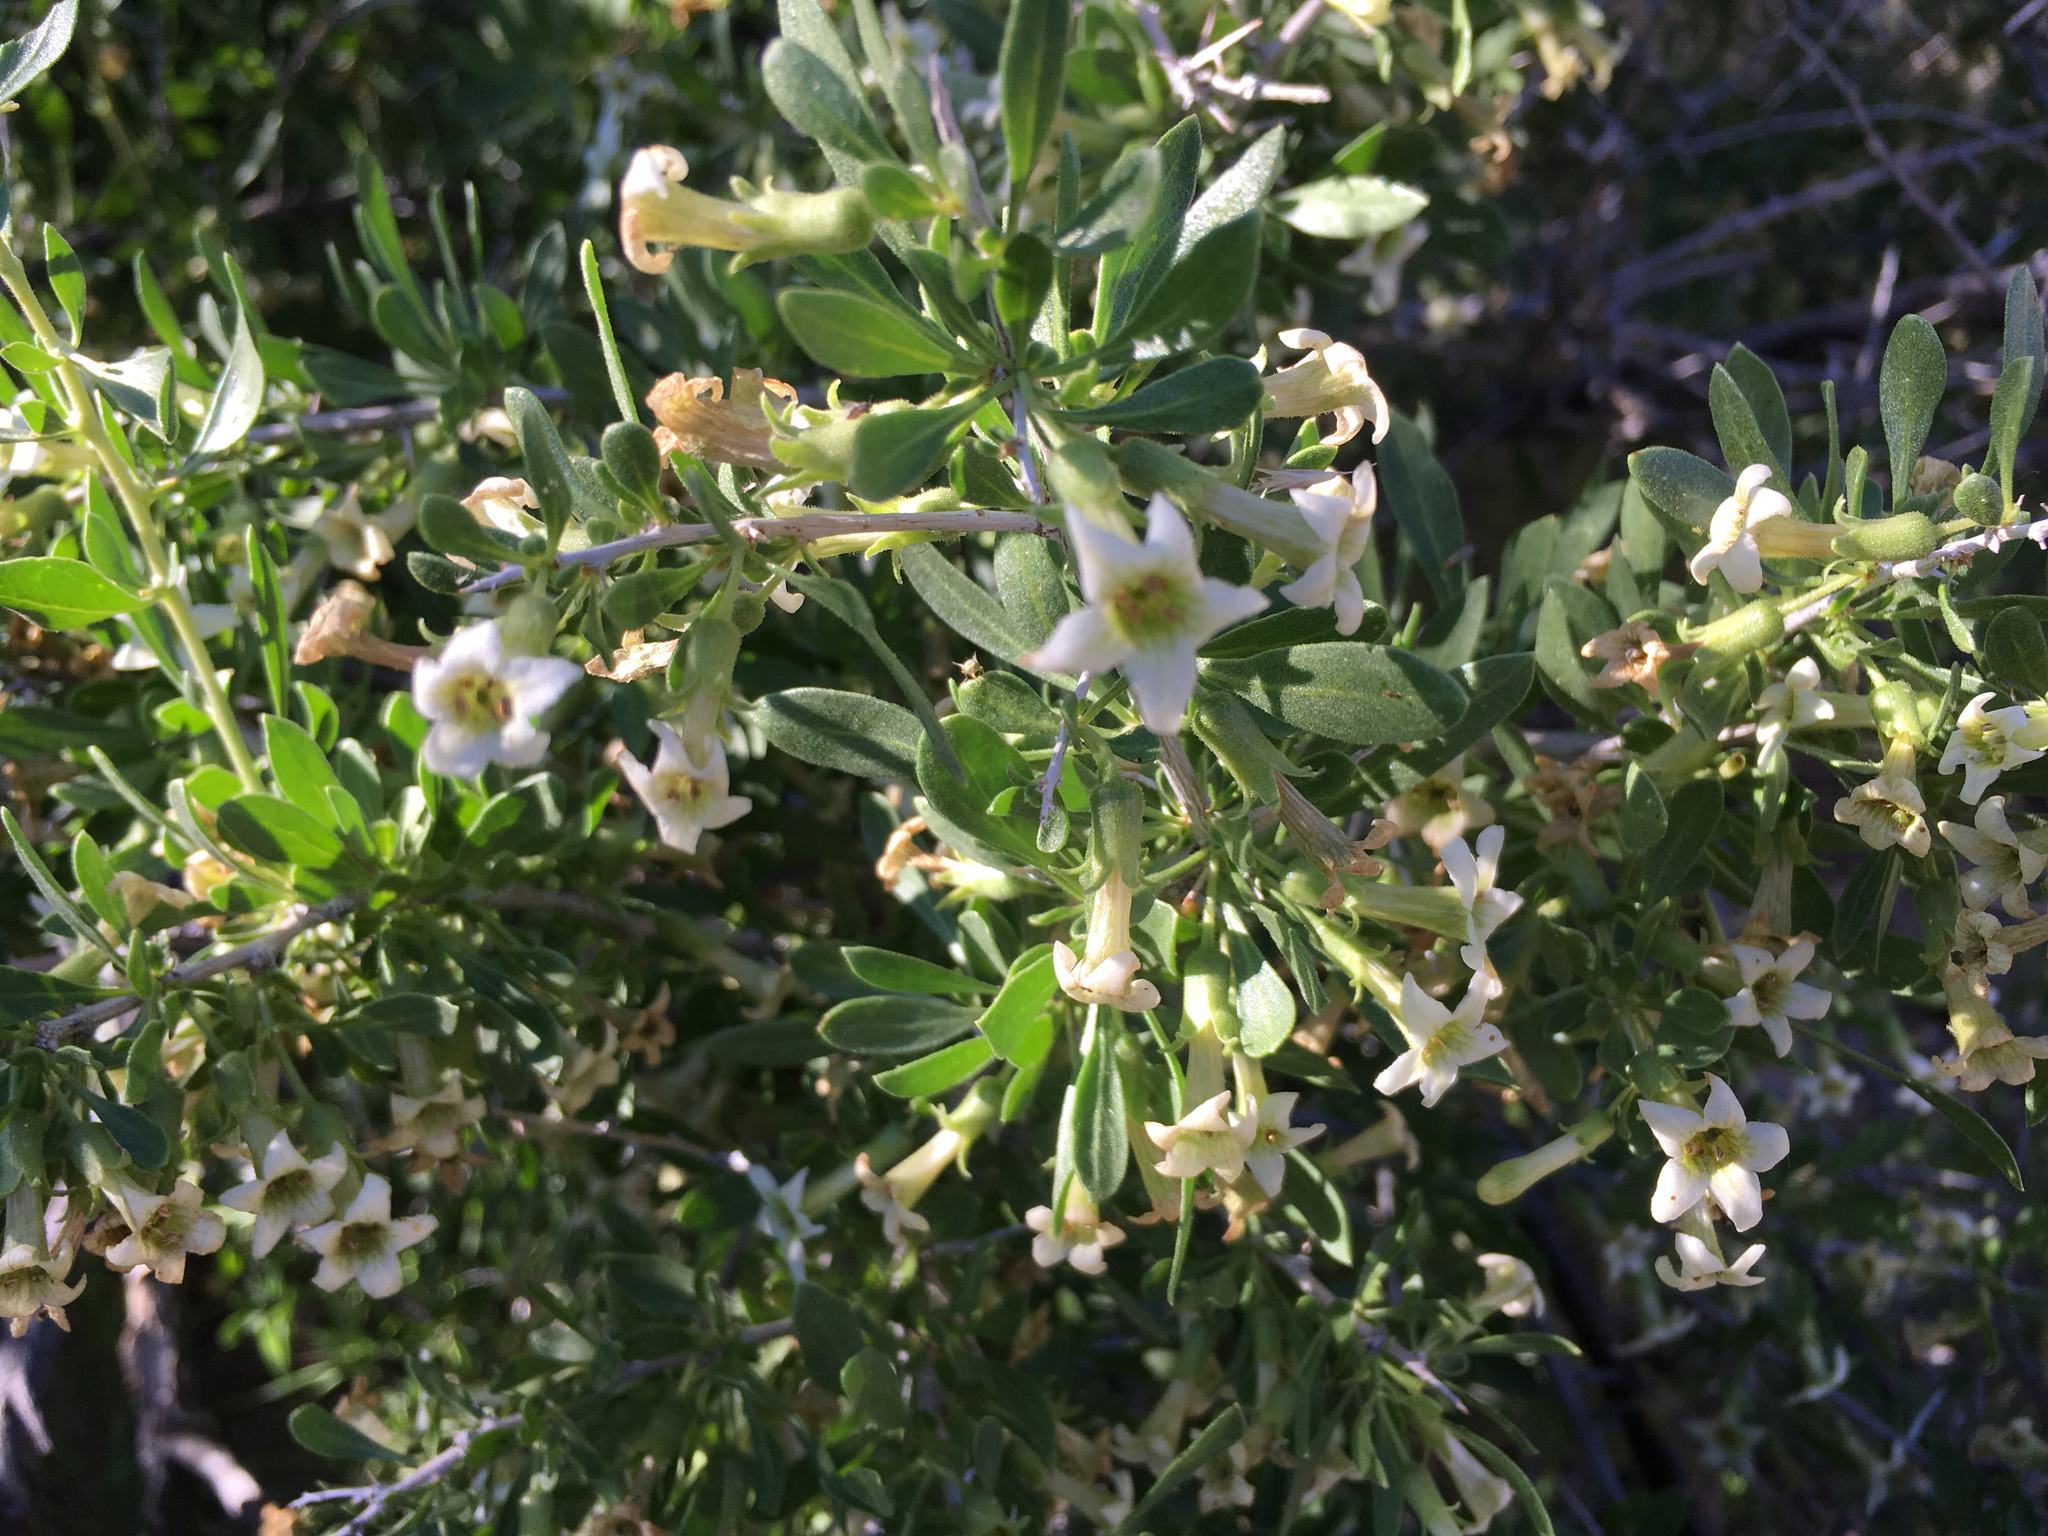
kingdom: Plantae
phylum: Tracheophyta
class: Magnoliopsida
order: Solanales
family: Solanaceae
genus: Lycium
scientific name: Lycium cooperi
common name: Peachthorn
